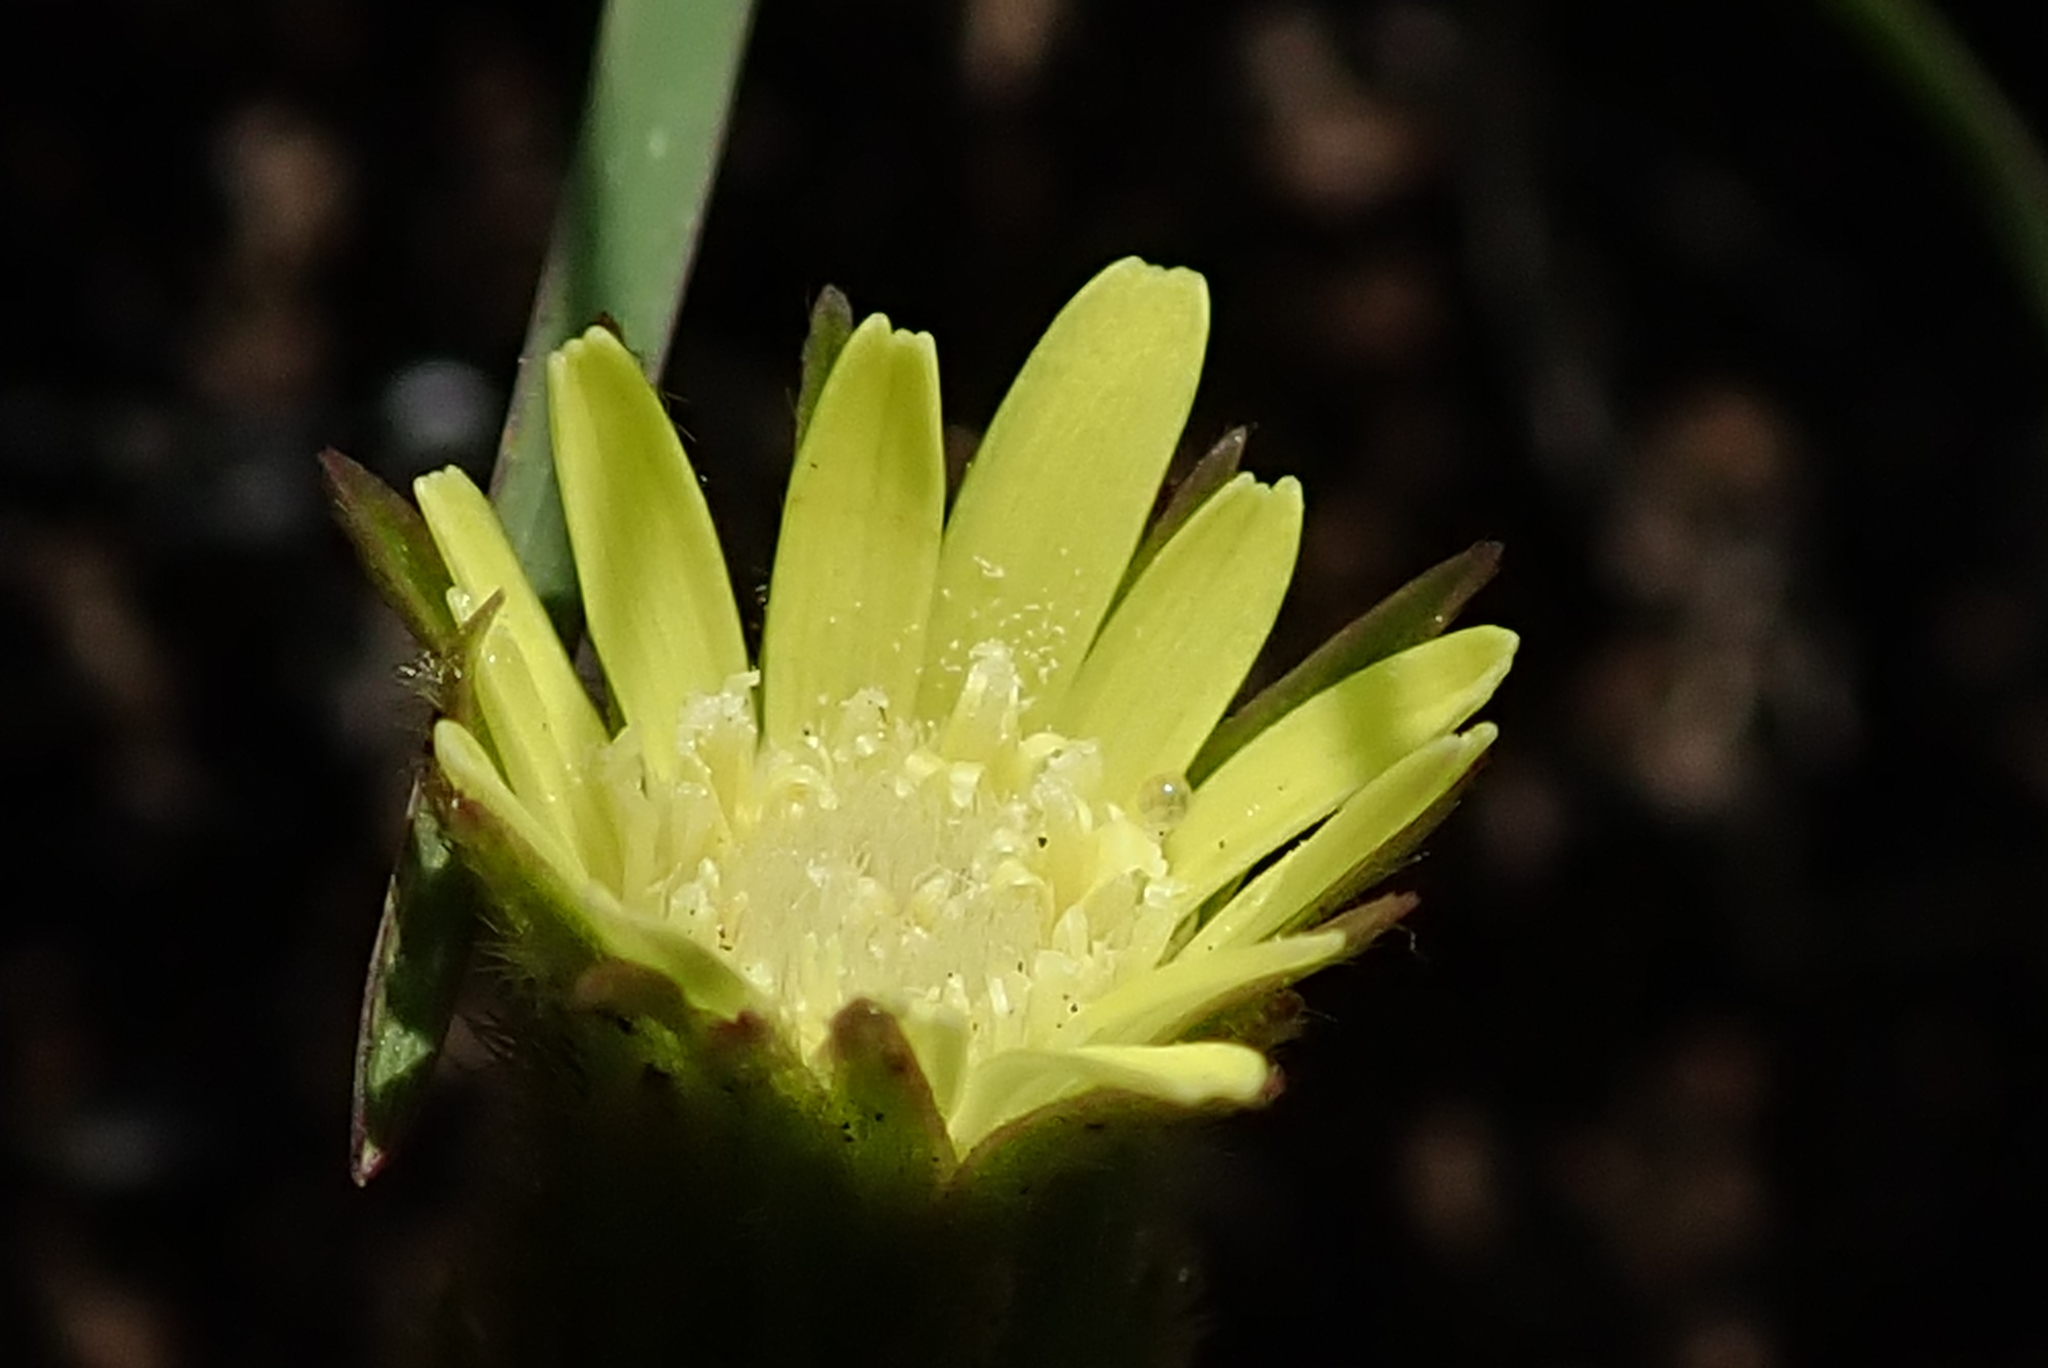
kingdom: Plantae
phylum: Tracheophyta
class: Magnoliopsida
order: Asterales
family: Asteraceae
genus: Piloselloides
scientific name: Piloselloides hirsuta
